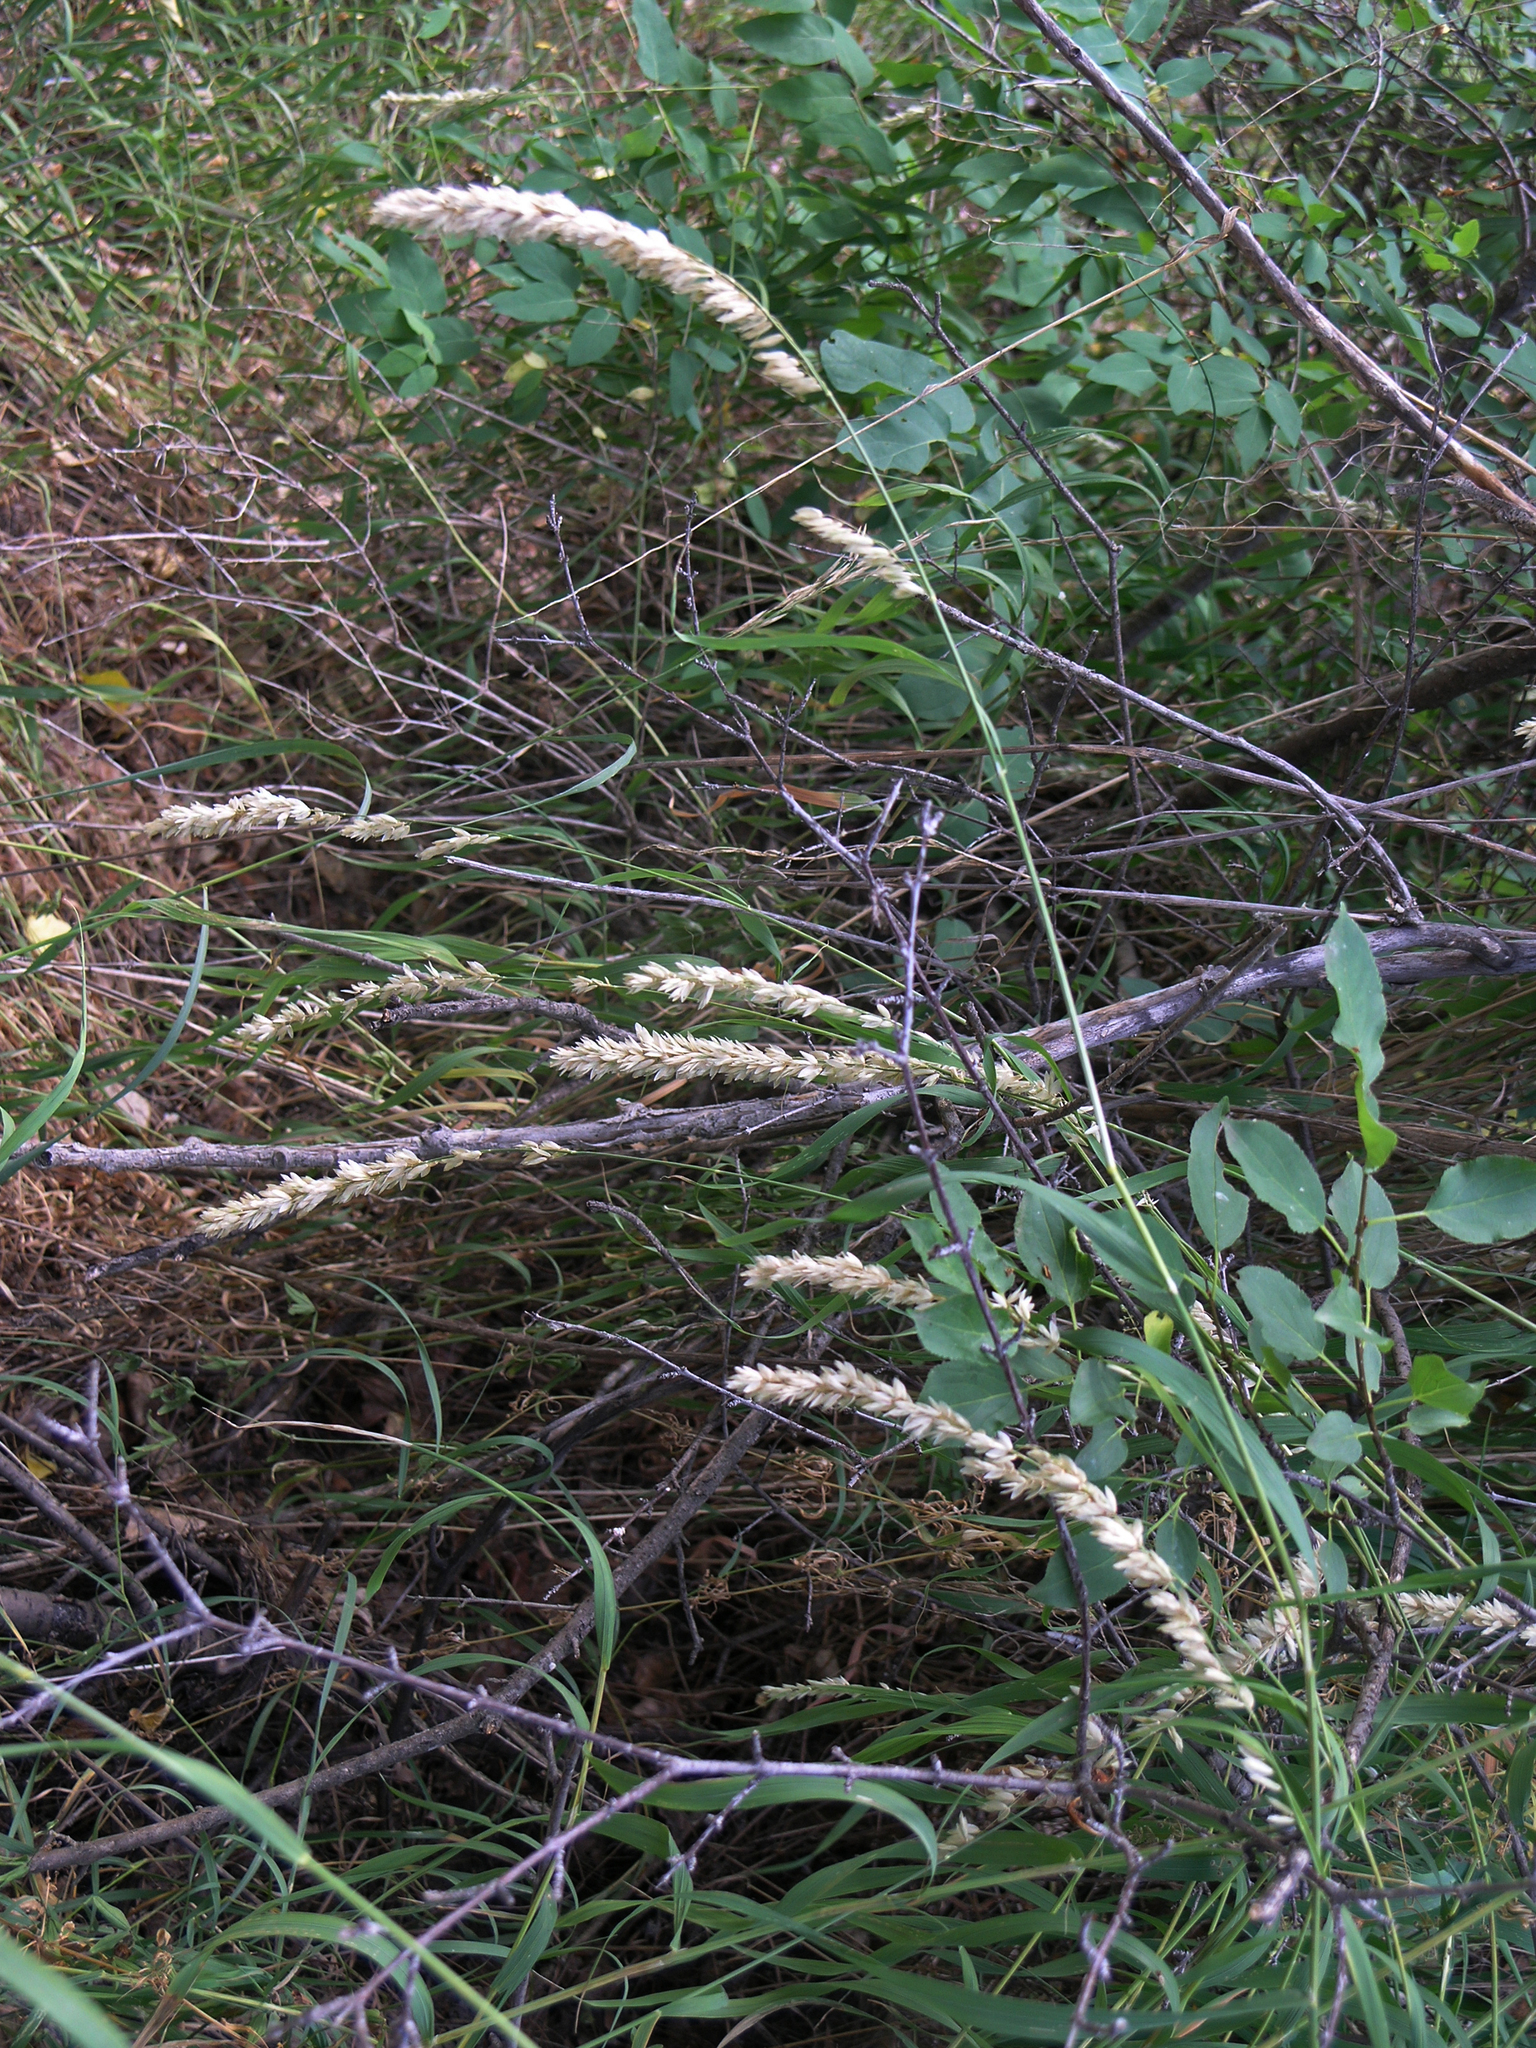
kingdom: Plantae
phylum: Tracheophyta
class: Liliopsida
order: Poales
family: Poaceae
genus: Melica
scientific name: Melica altissima
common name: Siberian melicgrass
